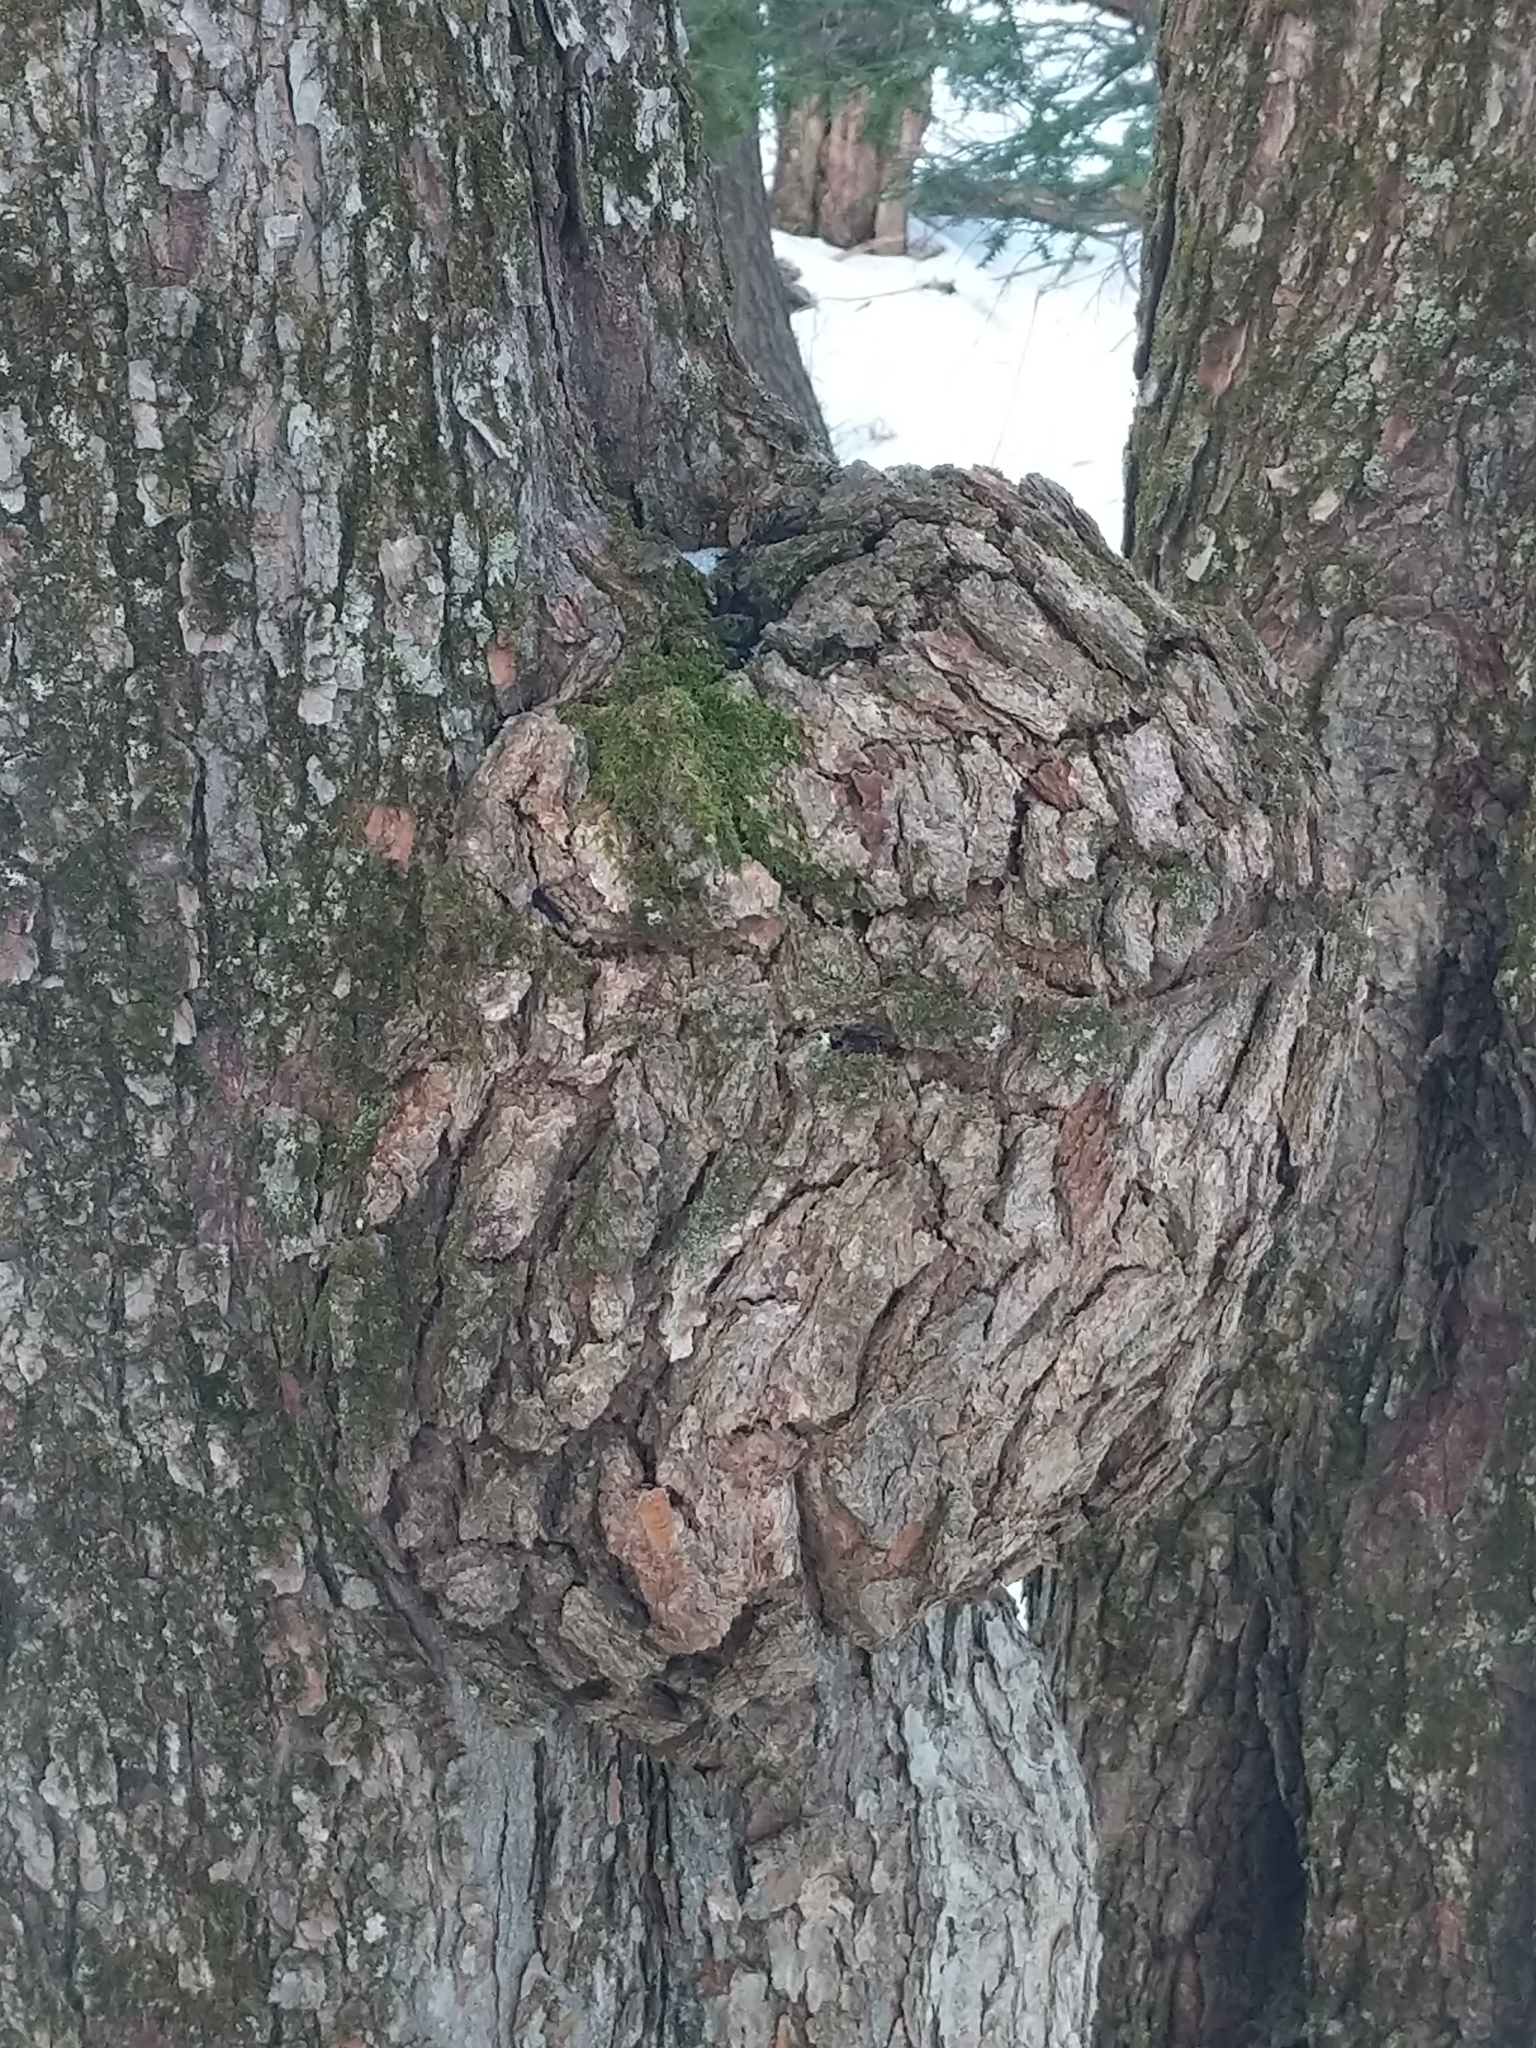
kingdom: Bacteria
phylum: Proteobacteria
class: Alphaproteobacteria
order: Rhizobiales
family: Rhizobiaceae
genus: Rhizobium
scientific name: Rhizobium Agrobacterium radiobacter
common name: Bacterial crown gall
